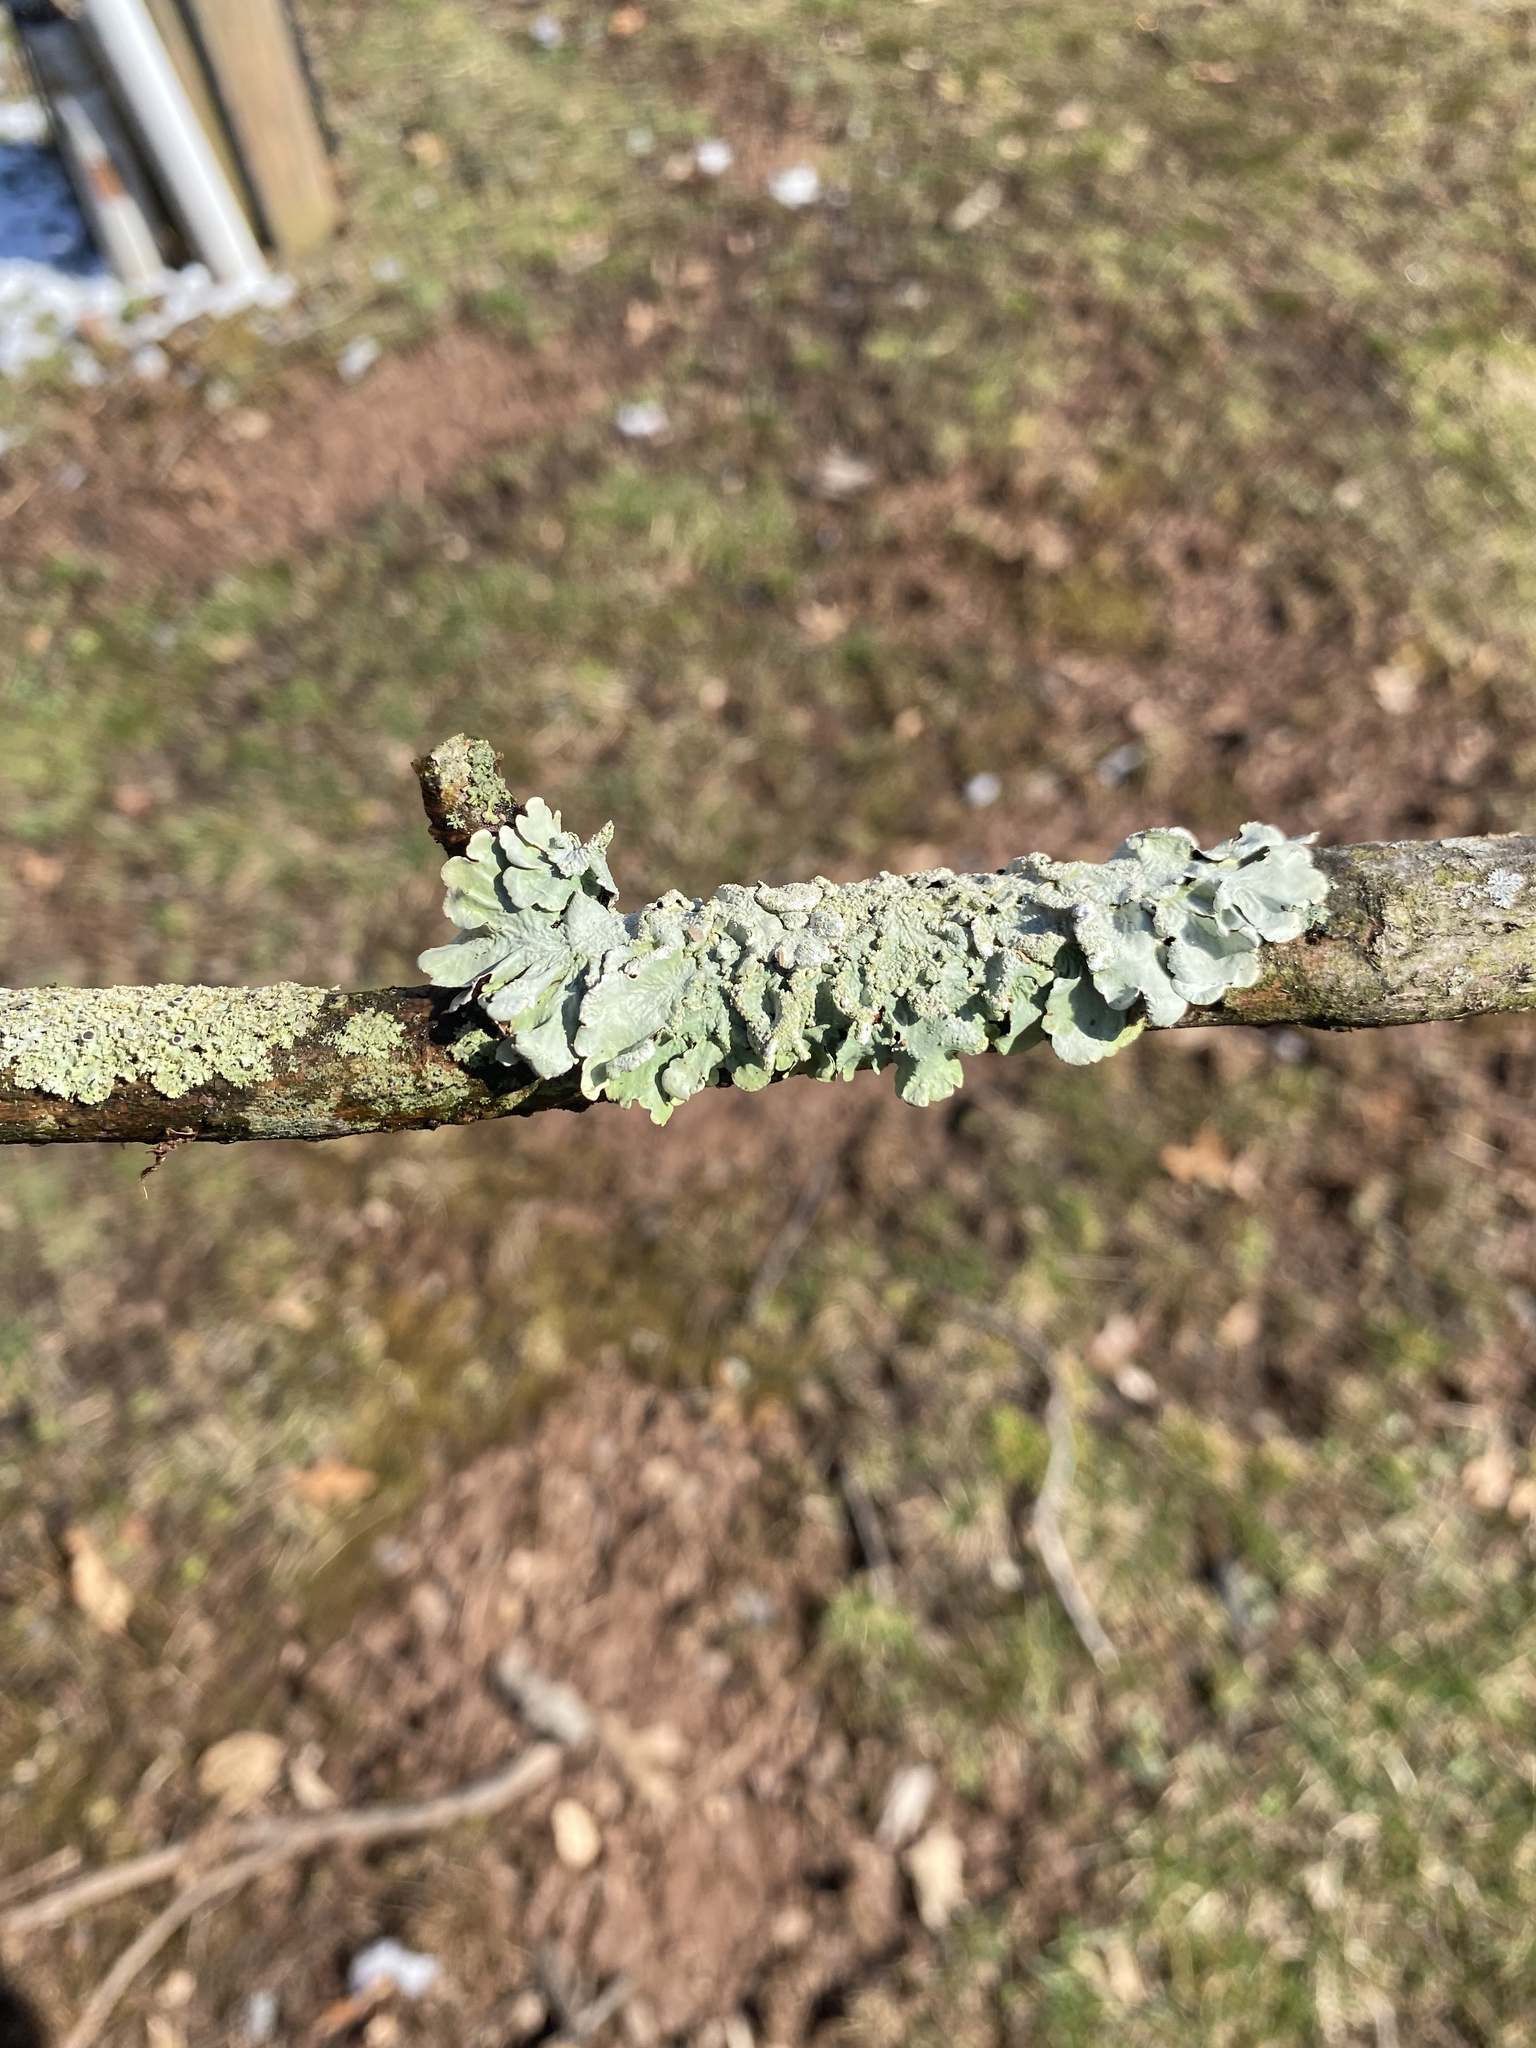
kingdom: Fungi
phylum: Ascomycota
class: Lecanoromycetes
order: Lecanorales
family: Parmeliaceae
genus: Flavoparmelia
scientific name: Flavoparmelia caperata
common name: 40-mile per hour lichen
